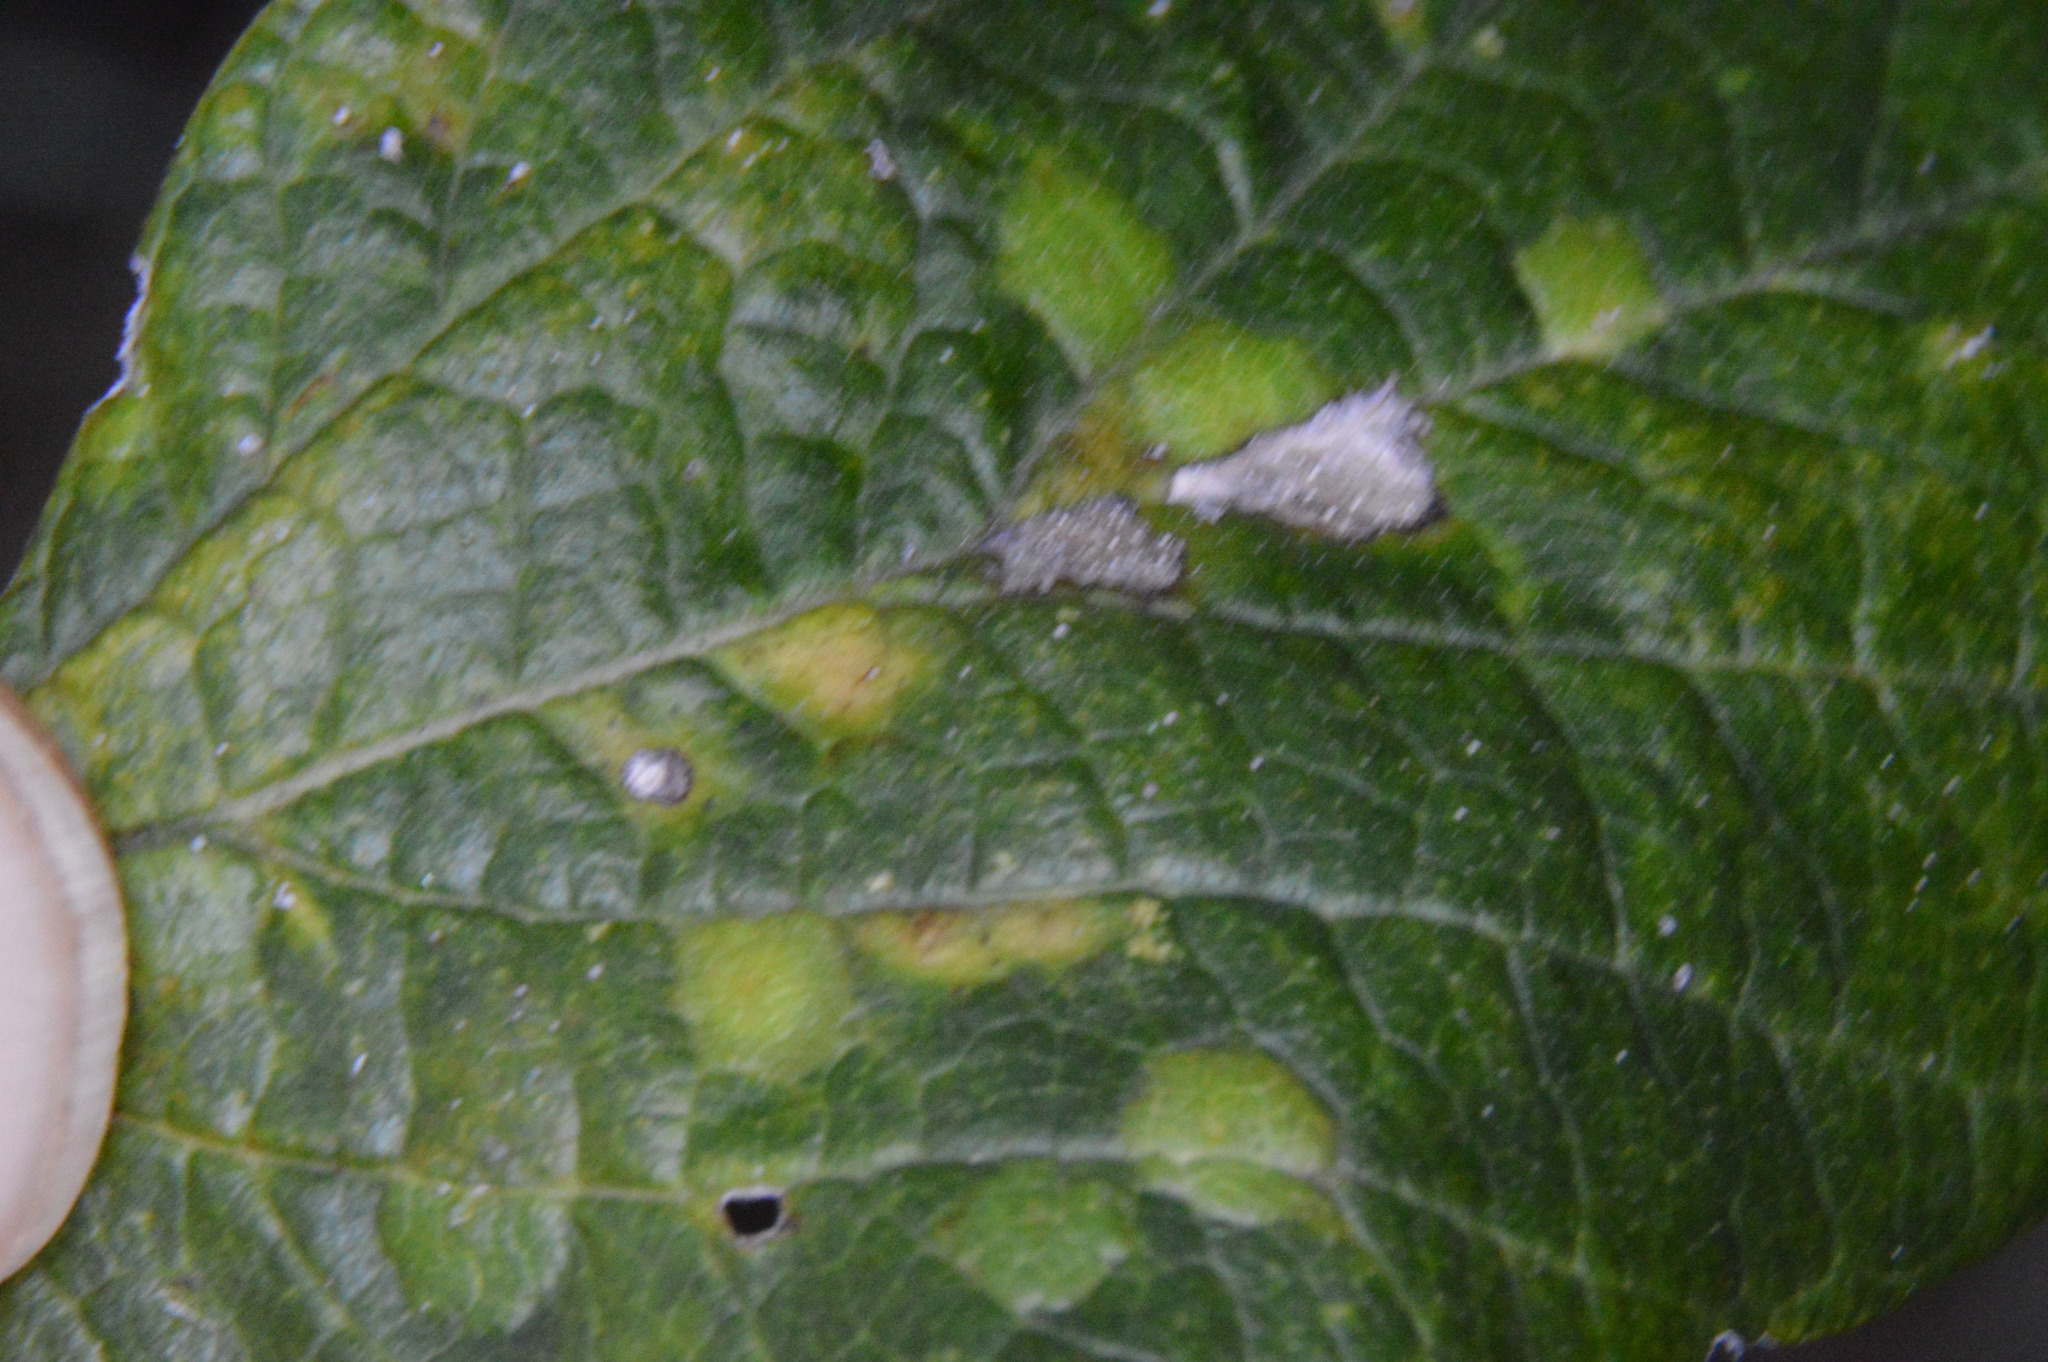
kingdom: Animalia
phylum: Arthropoda
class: Insecta
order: Hemiptera
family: Aphalaridae
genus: Pachypsylla
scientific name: Pachypsylla celtidisvesicula
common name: Hackberry blister gall psyllid
